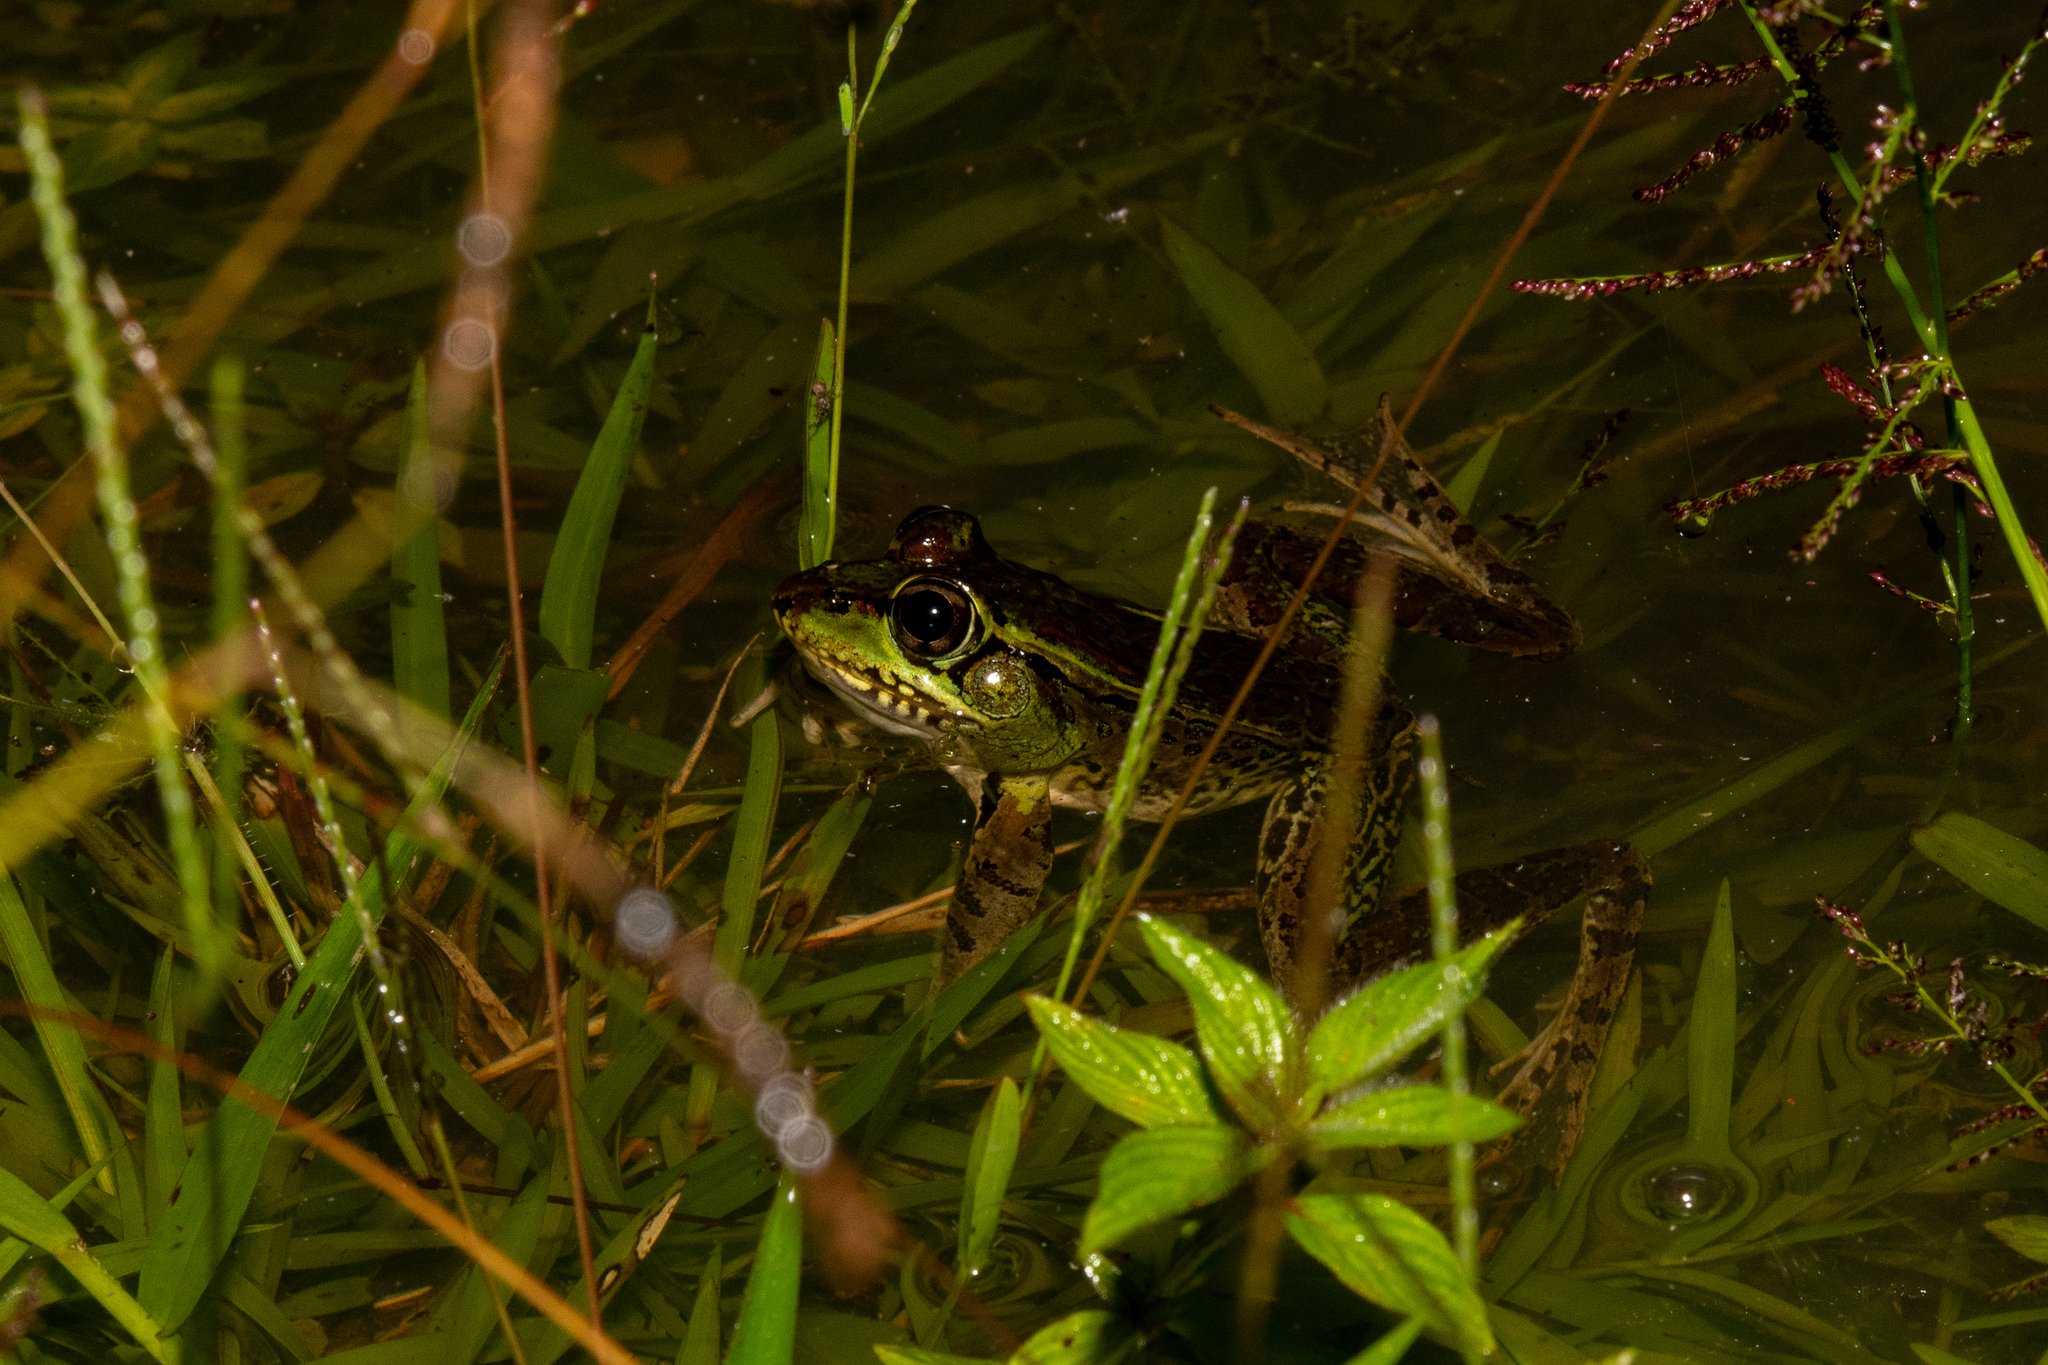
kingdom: Animalia
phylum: Chordata
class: Amphibia
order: Anura
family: Ranidae
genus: Lithobates
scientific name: Lithobates maculatus
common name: Highland frog
